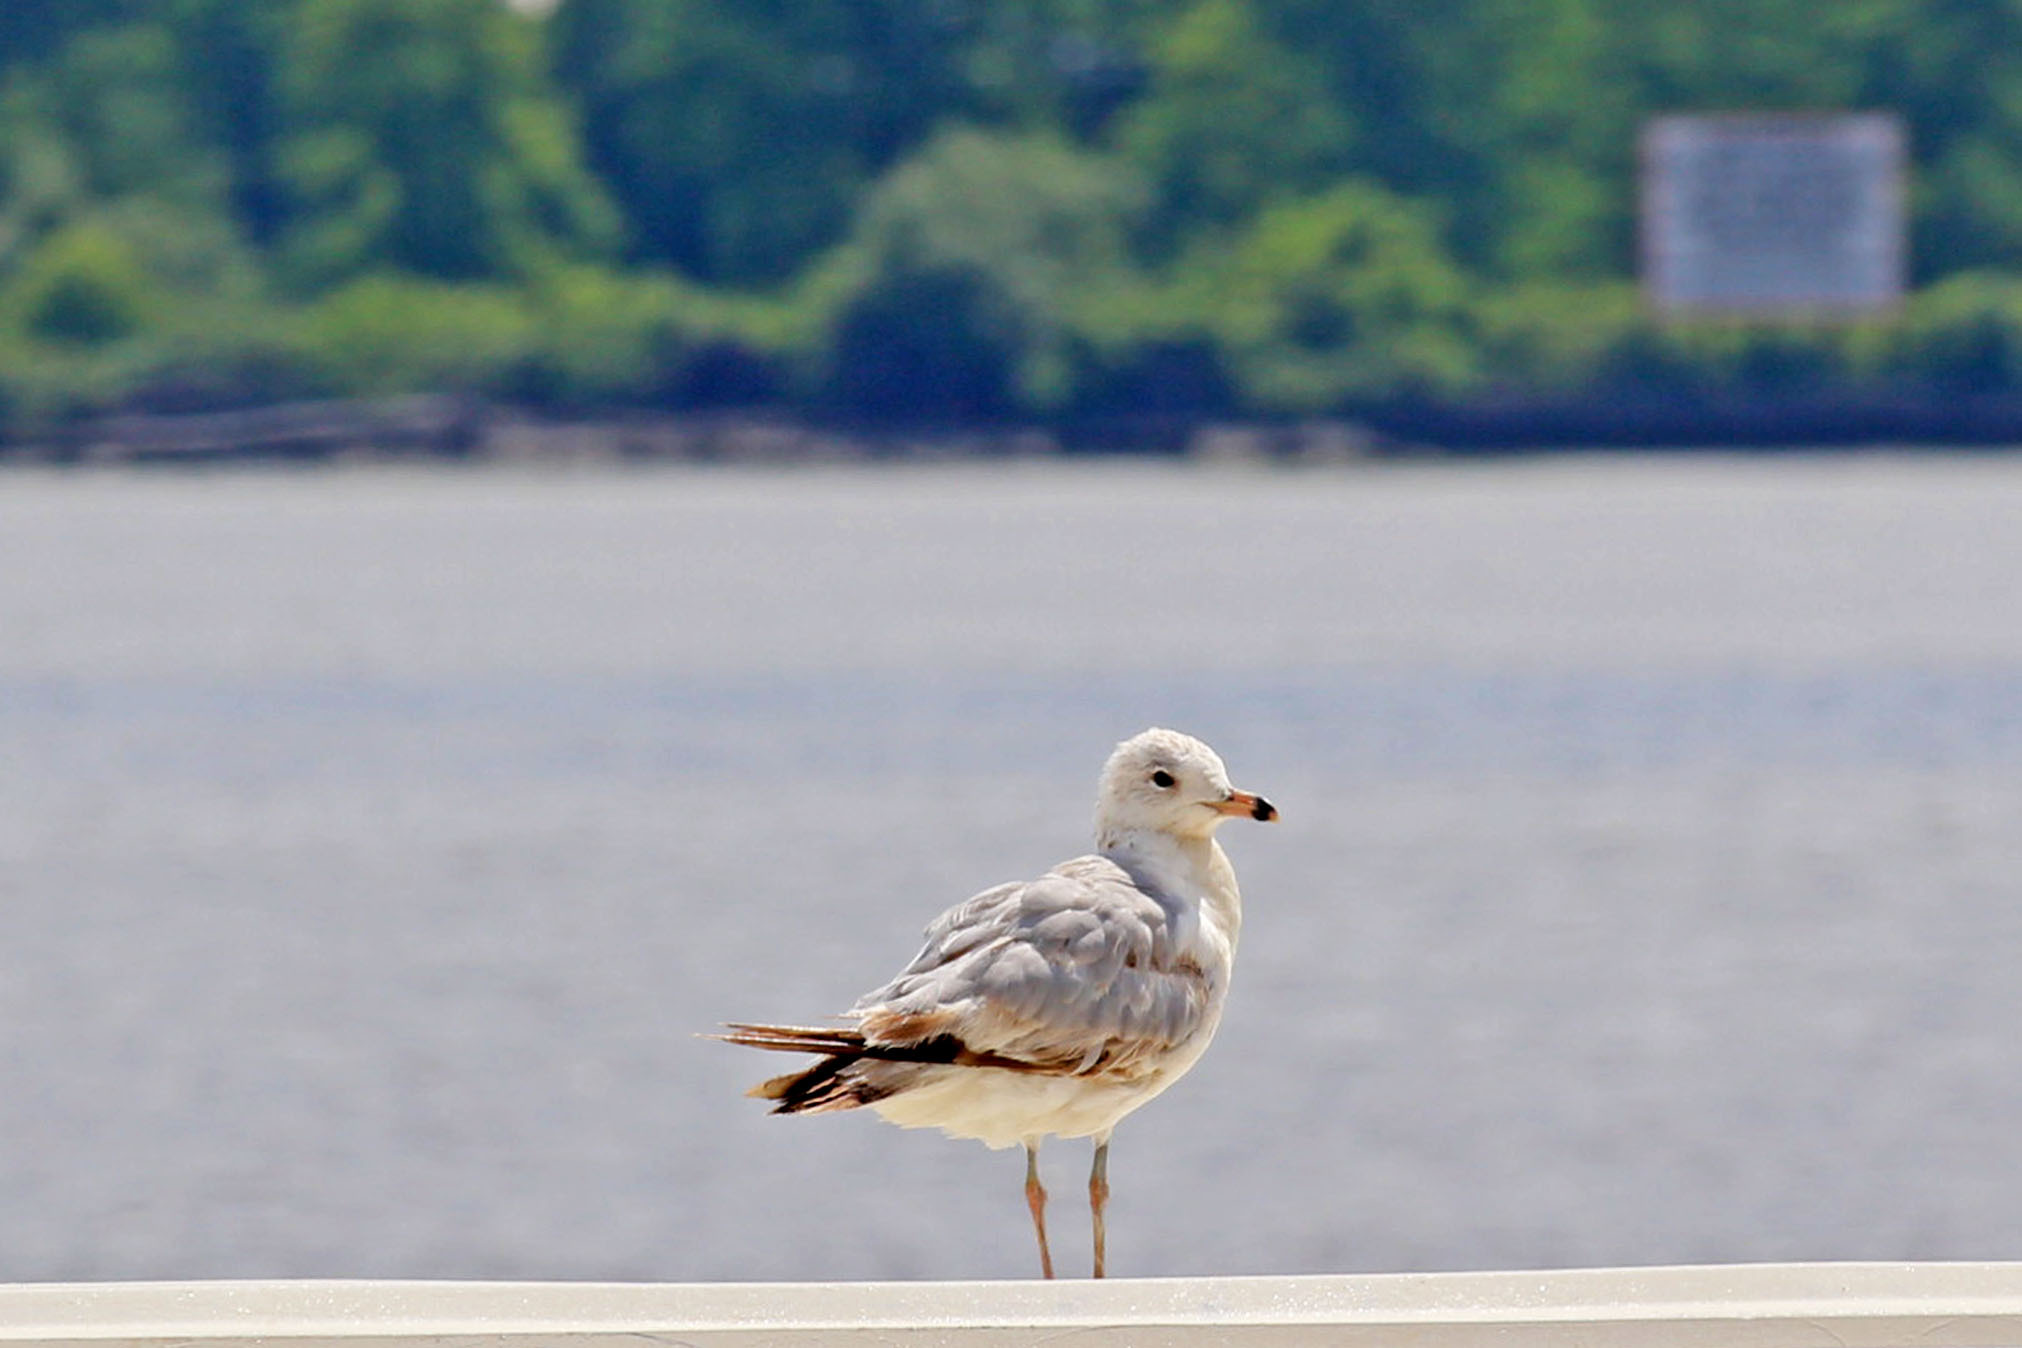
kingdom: Animalia
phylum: Chordata
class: Aves
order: Charadriiformes
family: Laridae
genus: Larus
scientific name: Larus delawarensis
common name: Ring-billed gull
